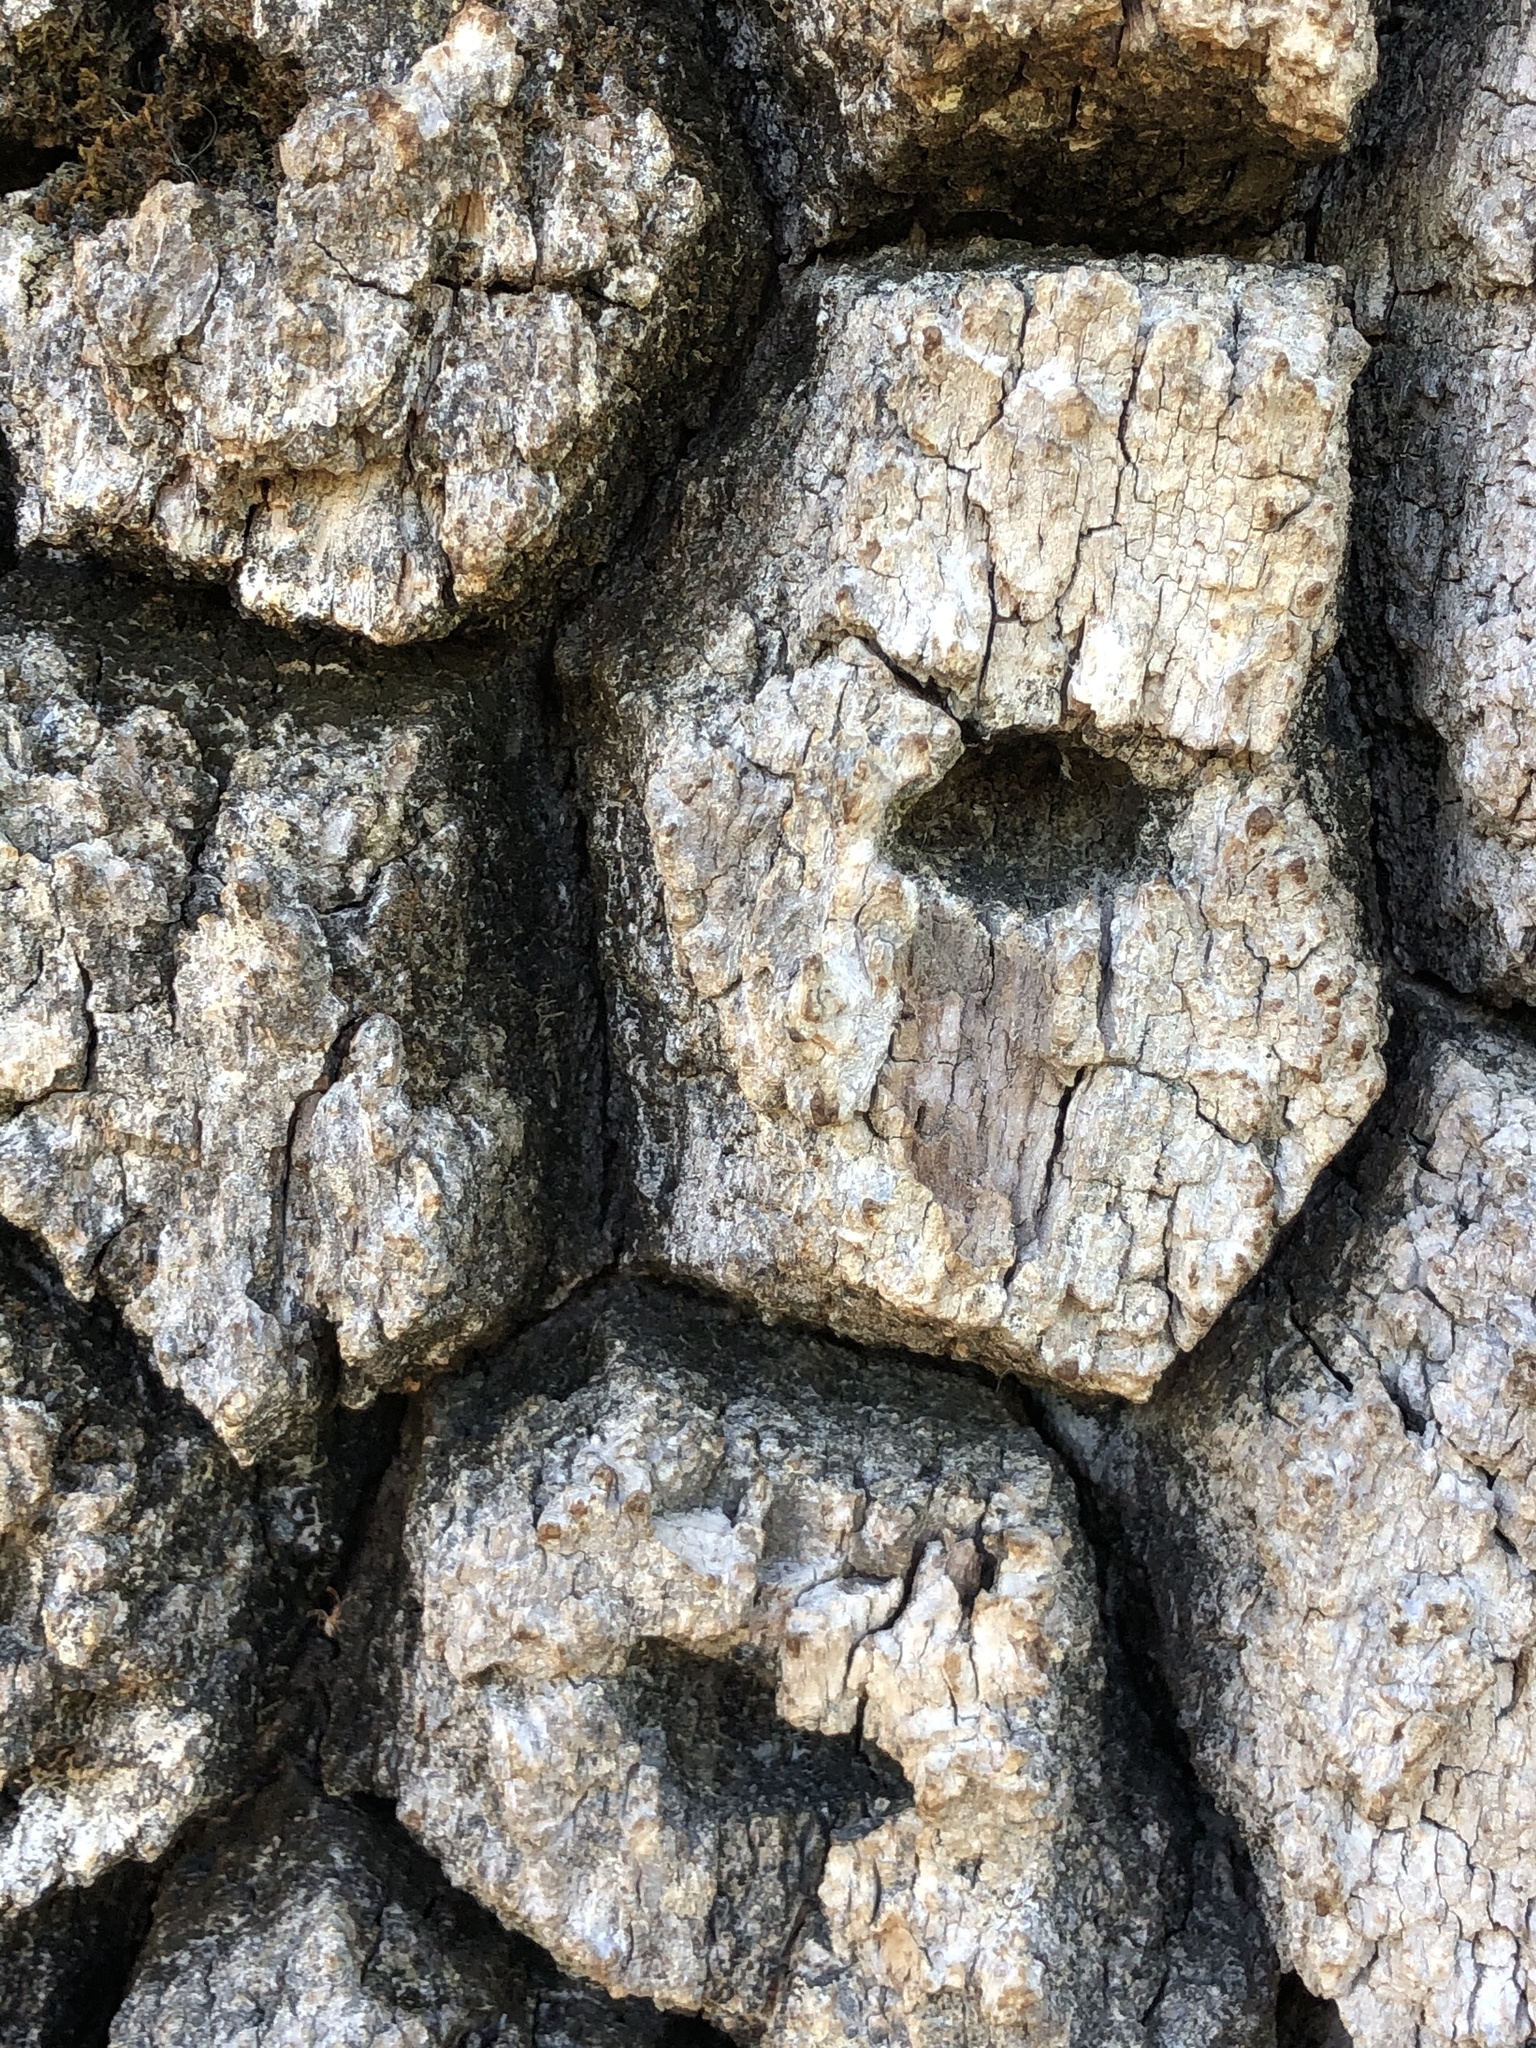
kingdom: Animalia
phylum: Chordata
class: Aves
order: Piciformes
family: Picidae
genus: Melanerpes
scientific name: Melanerpes formicivorus
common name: Acorn woodpecker
